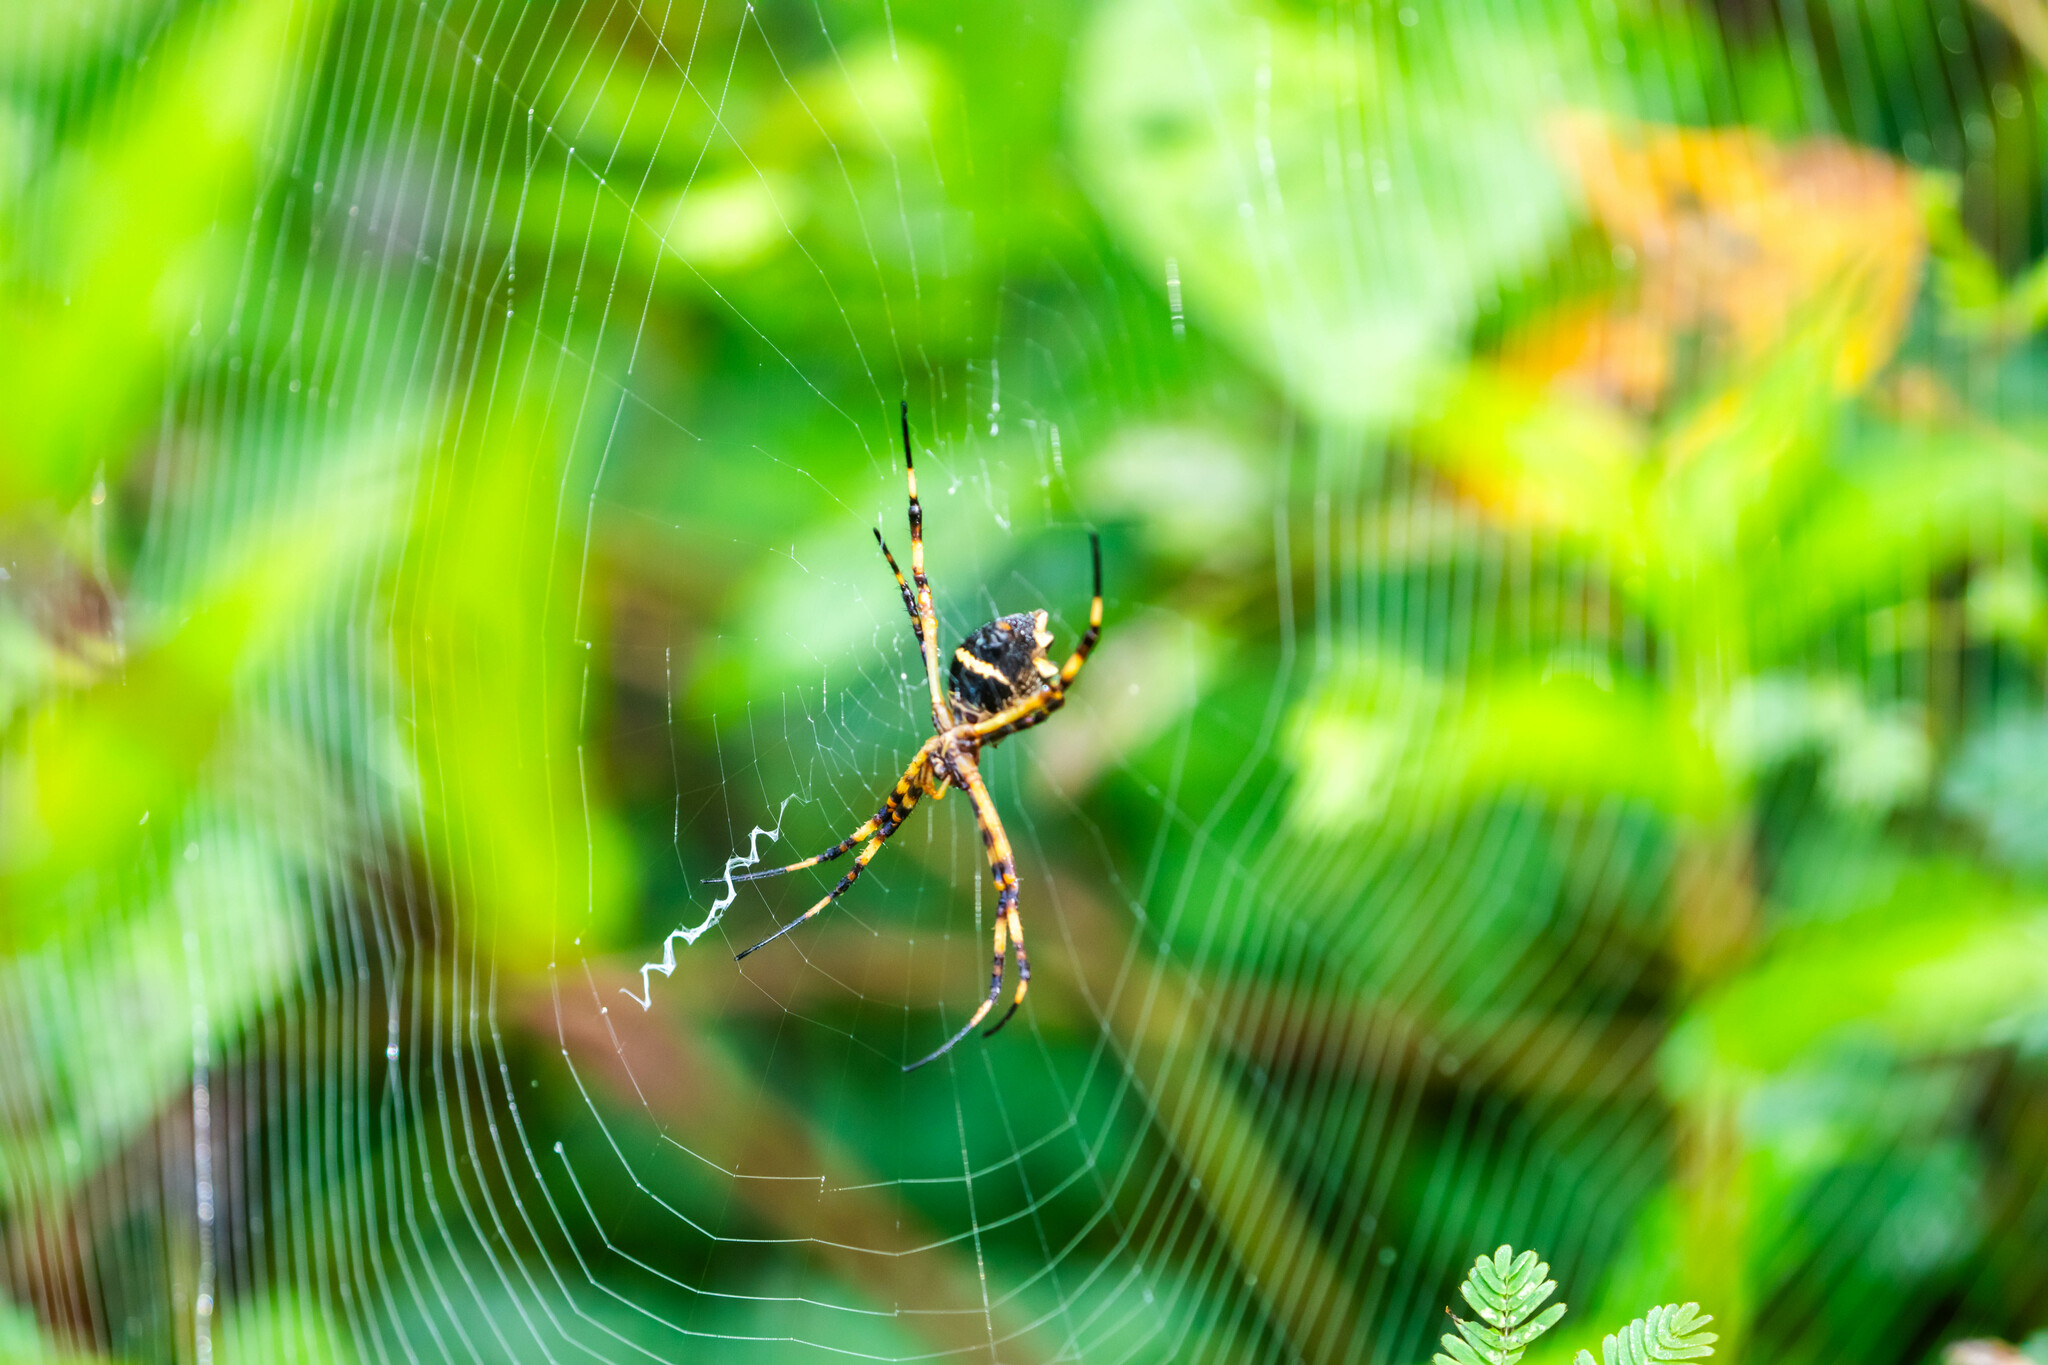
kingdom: Animalia
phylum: Arthropoda
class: Arachnida
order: Araneae
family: Araneidae
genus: Argiope
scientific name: Argiope argentata
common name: Orb weavers
